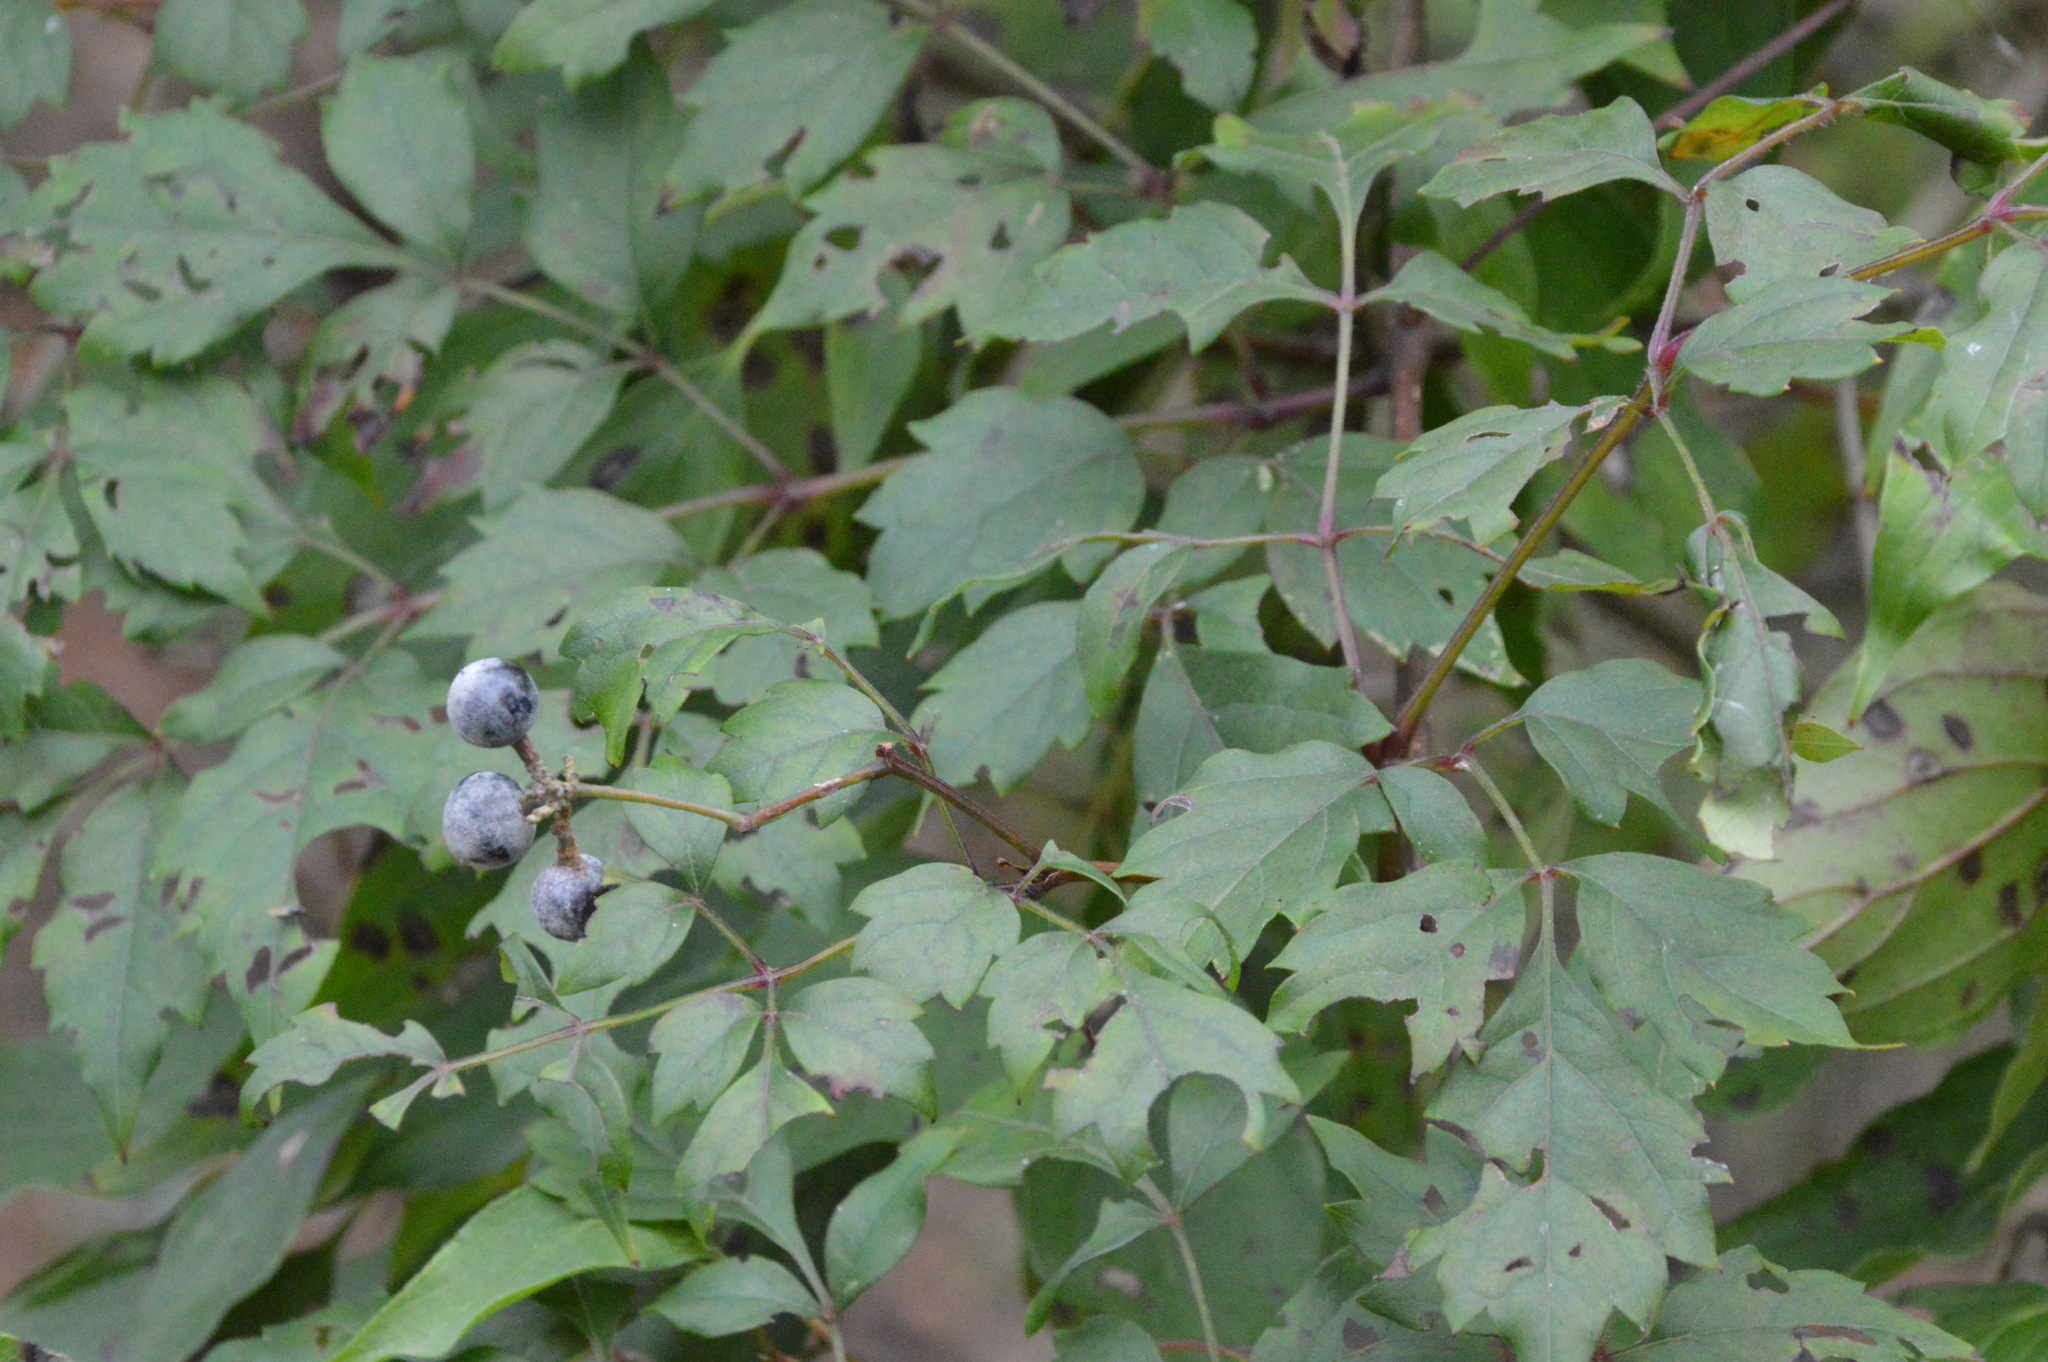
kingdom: Plantae
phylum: Tracheophyta
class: Magnoliopsida
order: Vitales
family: Vitaceae
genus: Nekemias
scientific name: Nekemias arborea
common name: Peppervine
